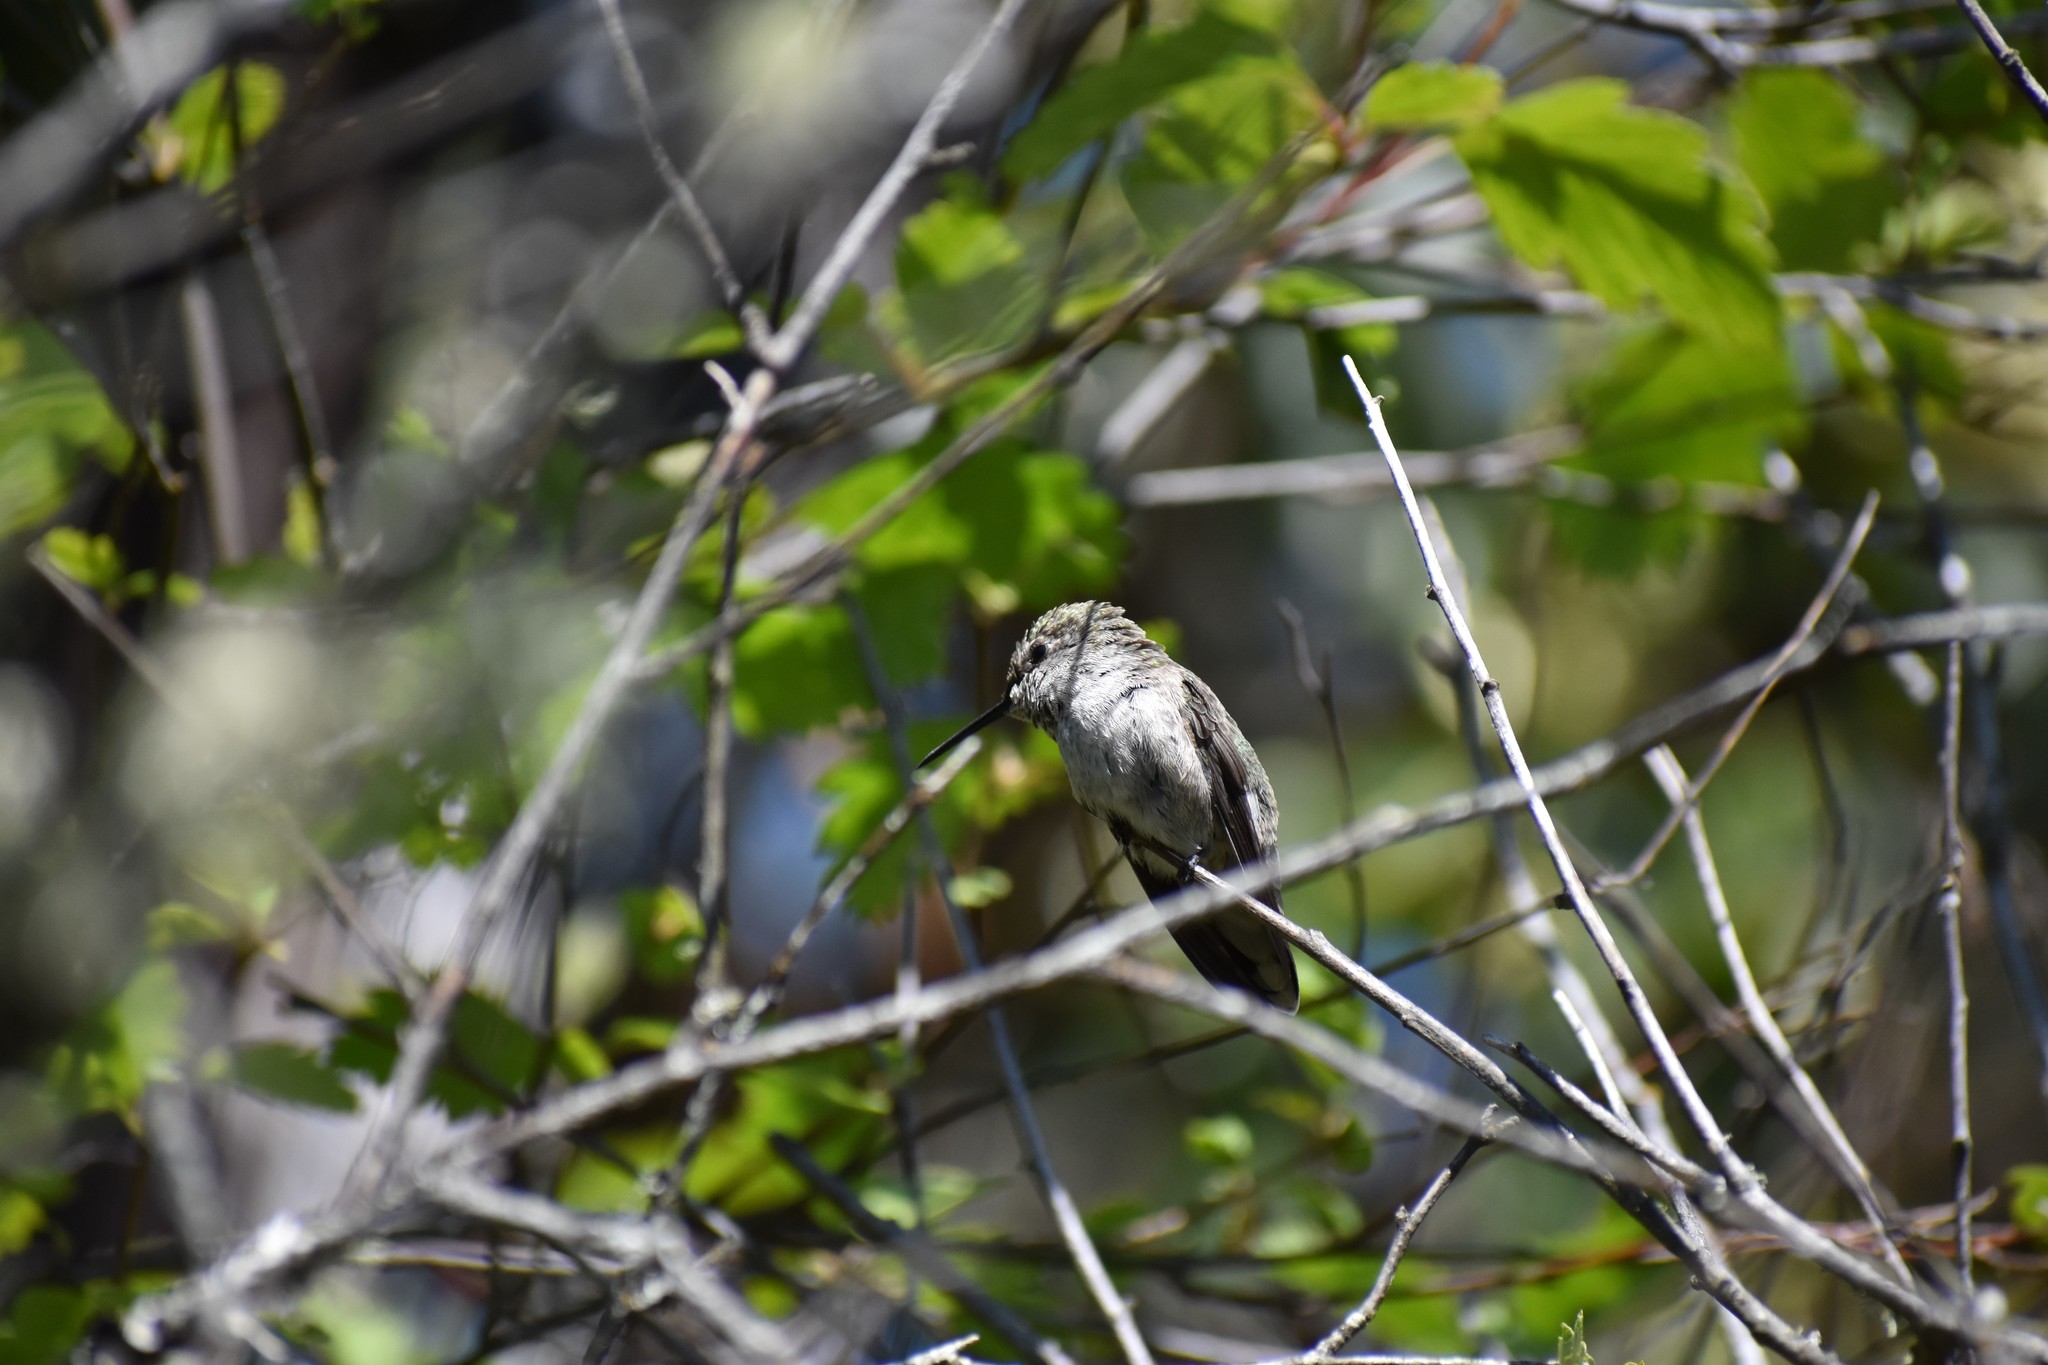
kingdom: Animalia
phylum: Chordata
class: Aves
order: Apodiformes
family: Trochilidae
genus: Calypte
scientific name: Calypte anna
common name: Anna's hummingbird
